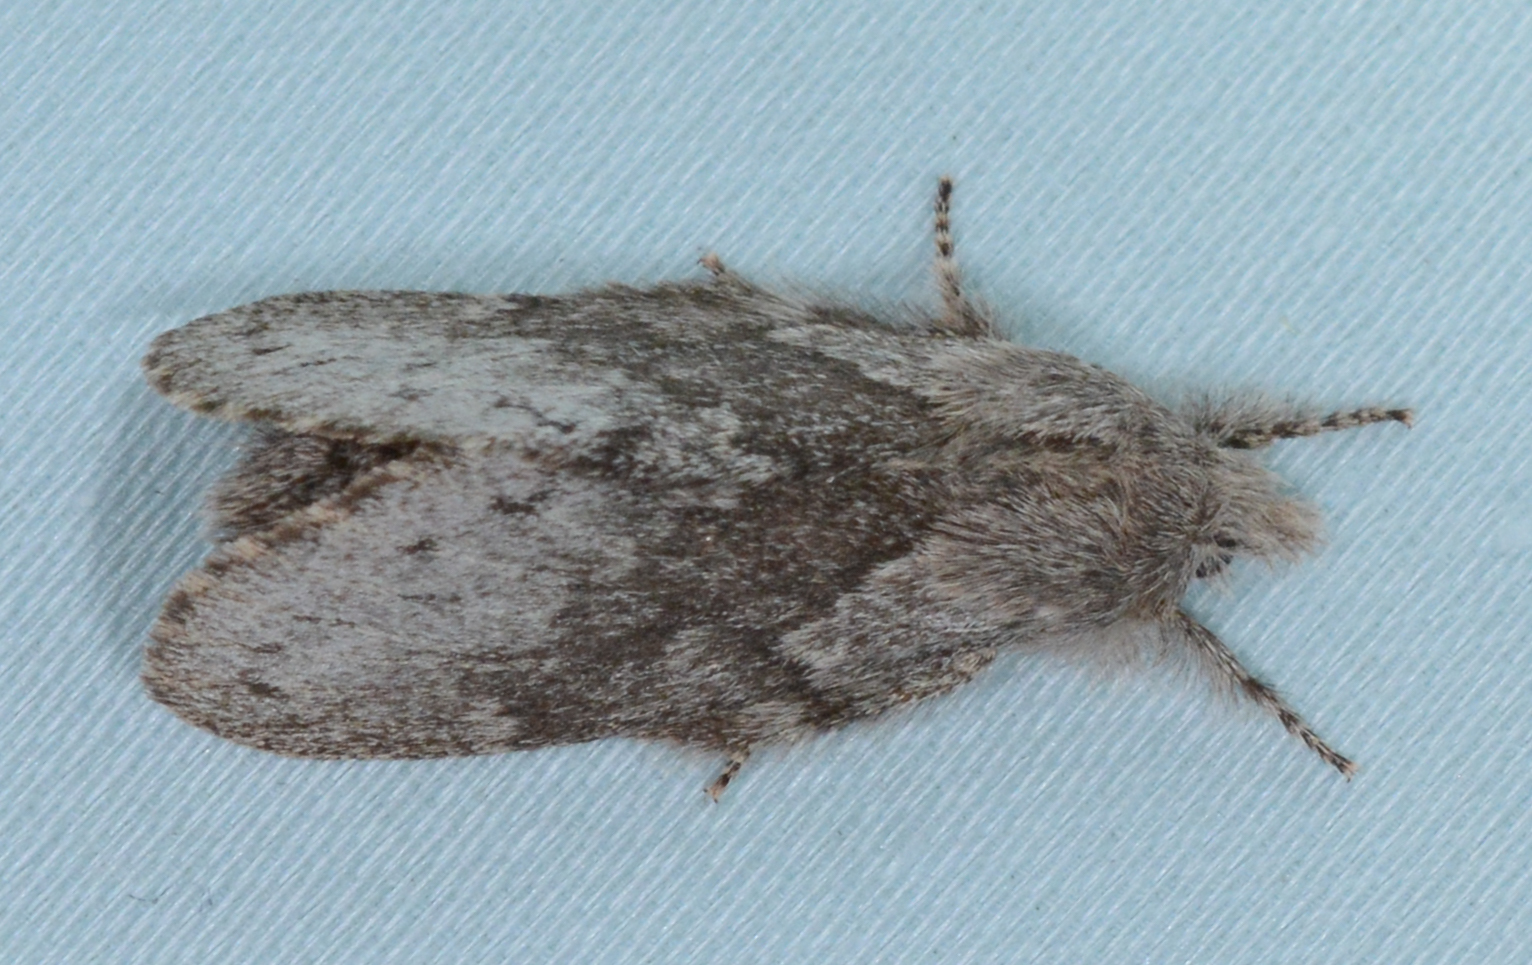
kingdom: Animalia
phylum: Arthropoda
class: Insecta
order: Lepidoptera
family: Lasiocampidae
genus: Heteropacha
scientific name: Heteropacha rileyana
